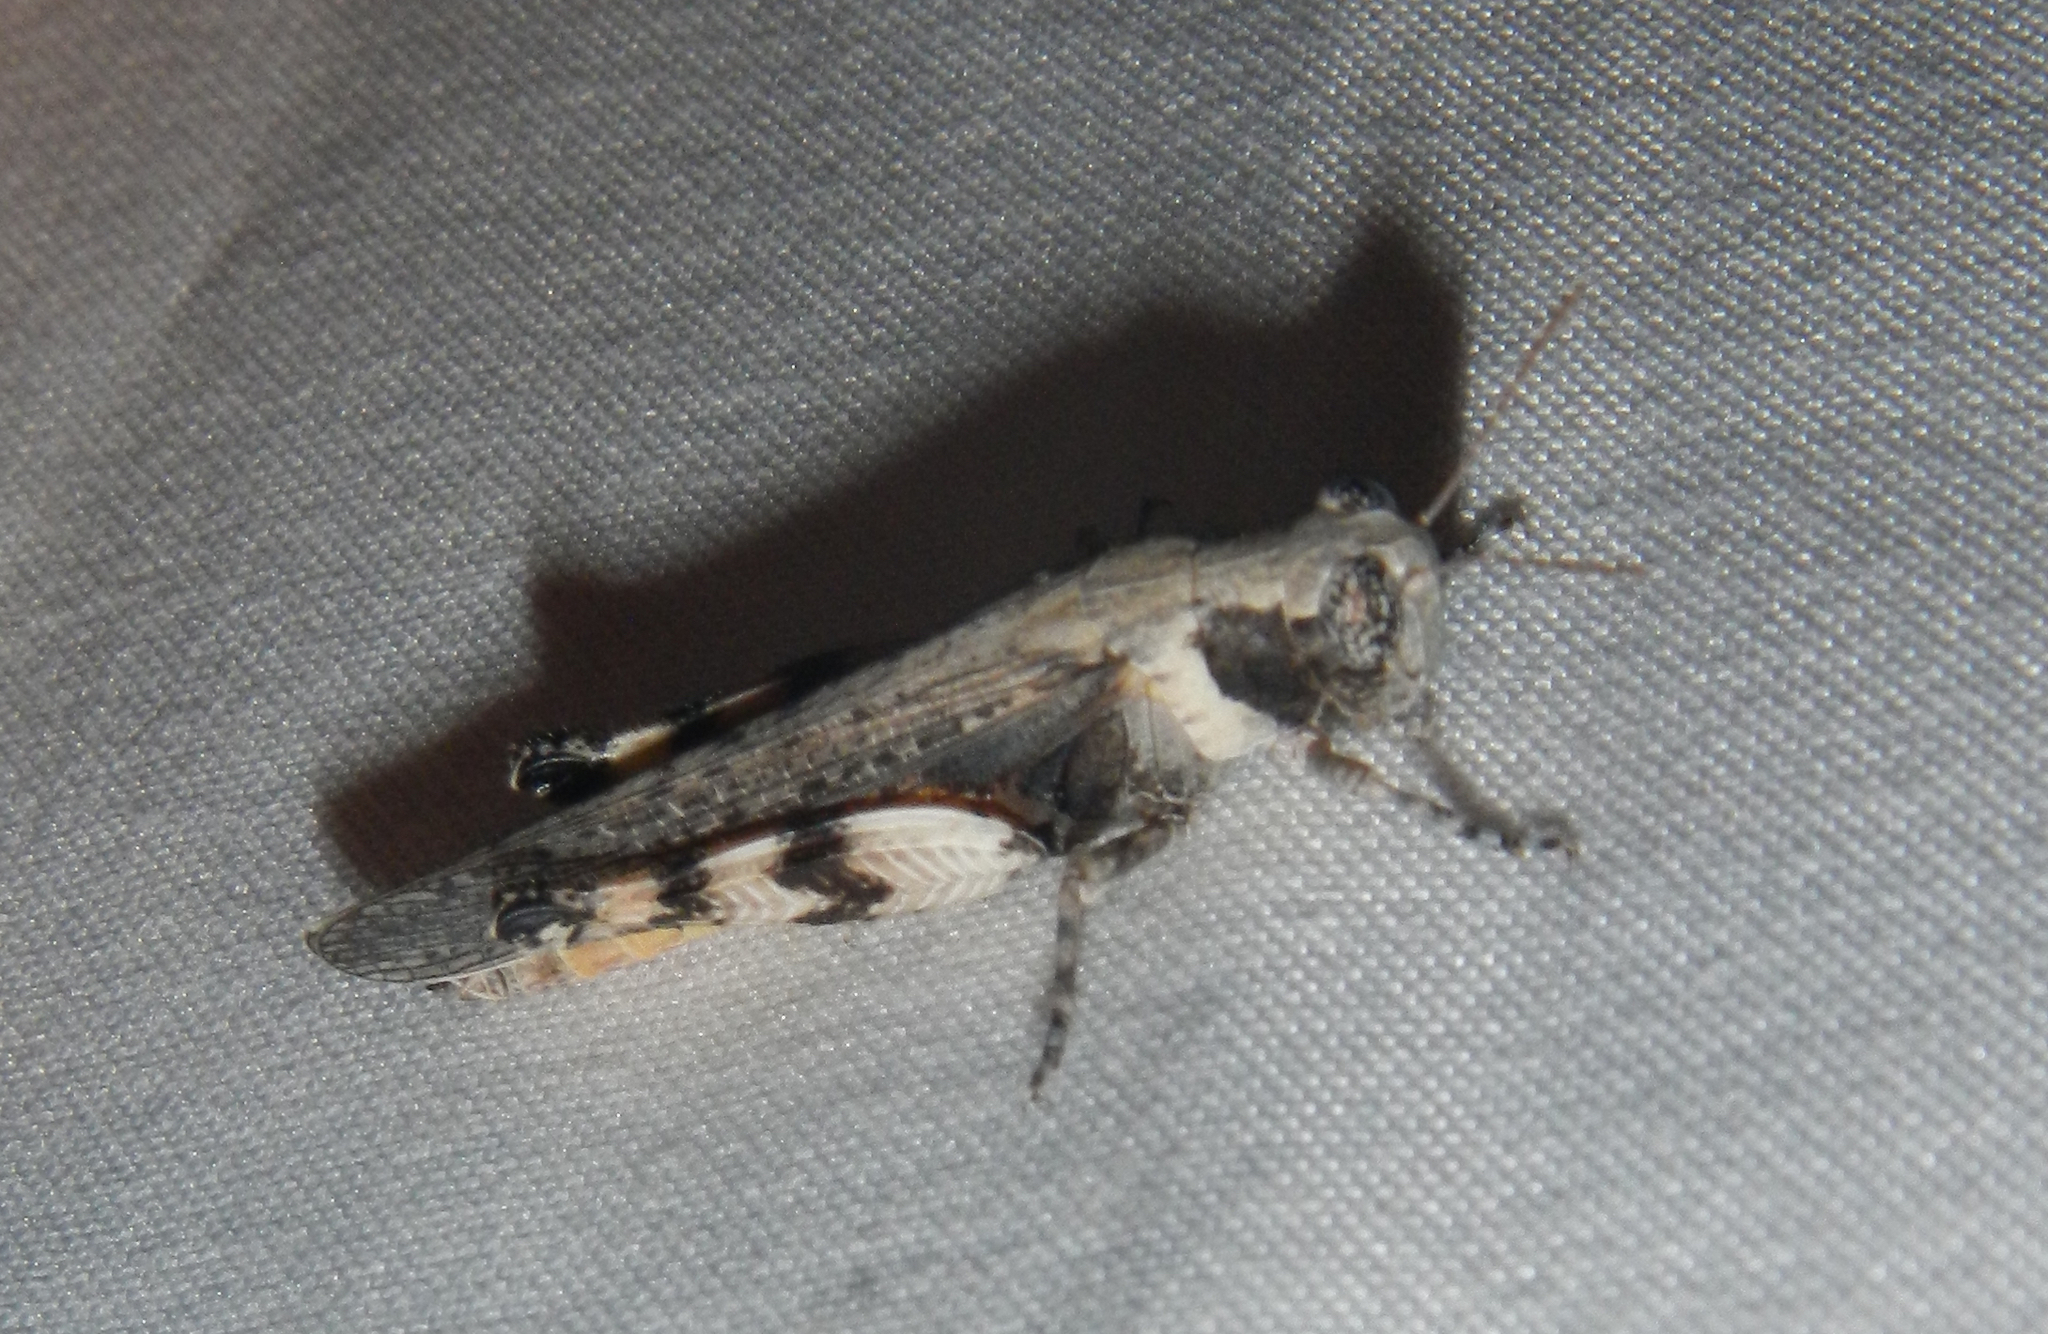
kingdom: Animalia
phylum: Arthropoda
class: Insecta
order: Orthoptera
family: Acrididae
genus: Ligurotettix
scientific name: Ligurotettix coquilletti
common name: Desert clicker grasshopper
